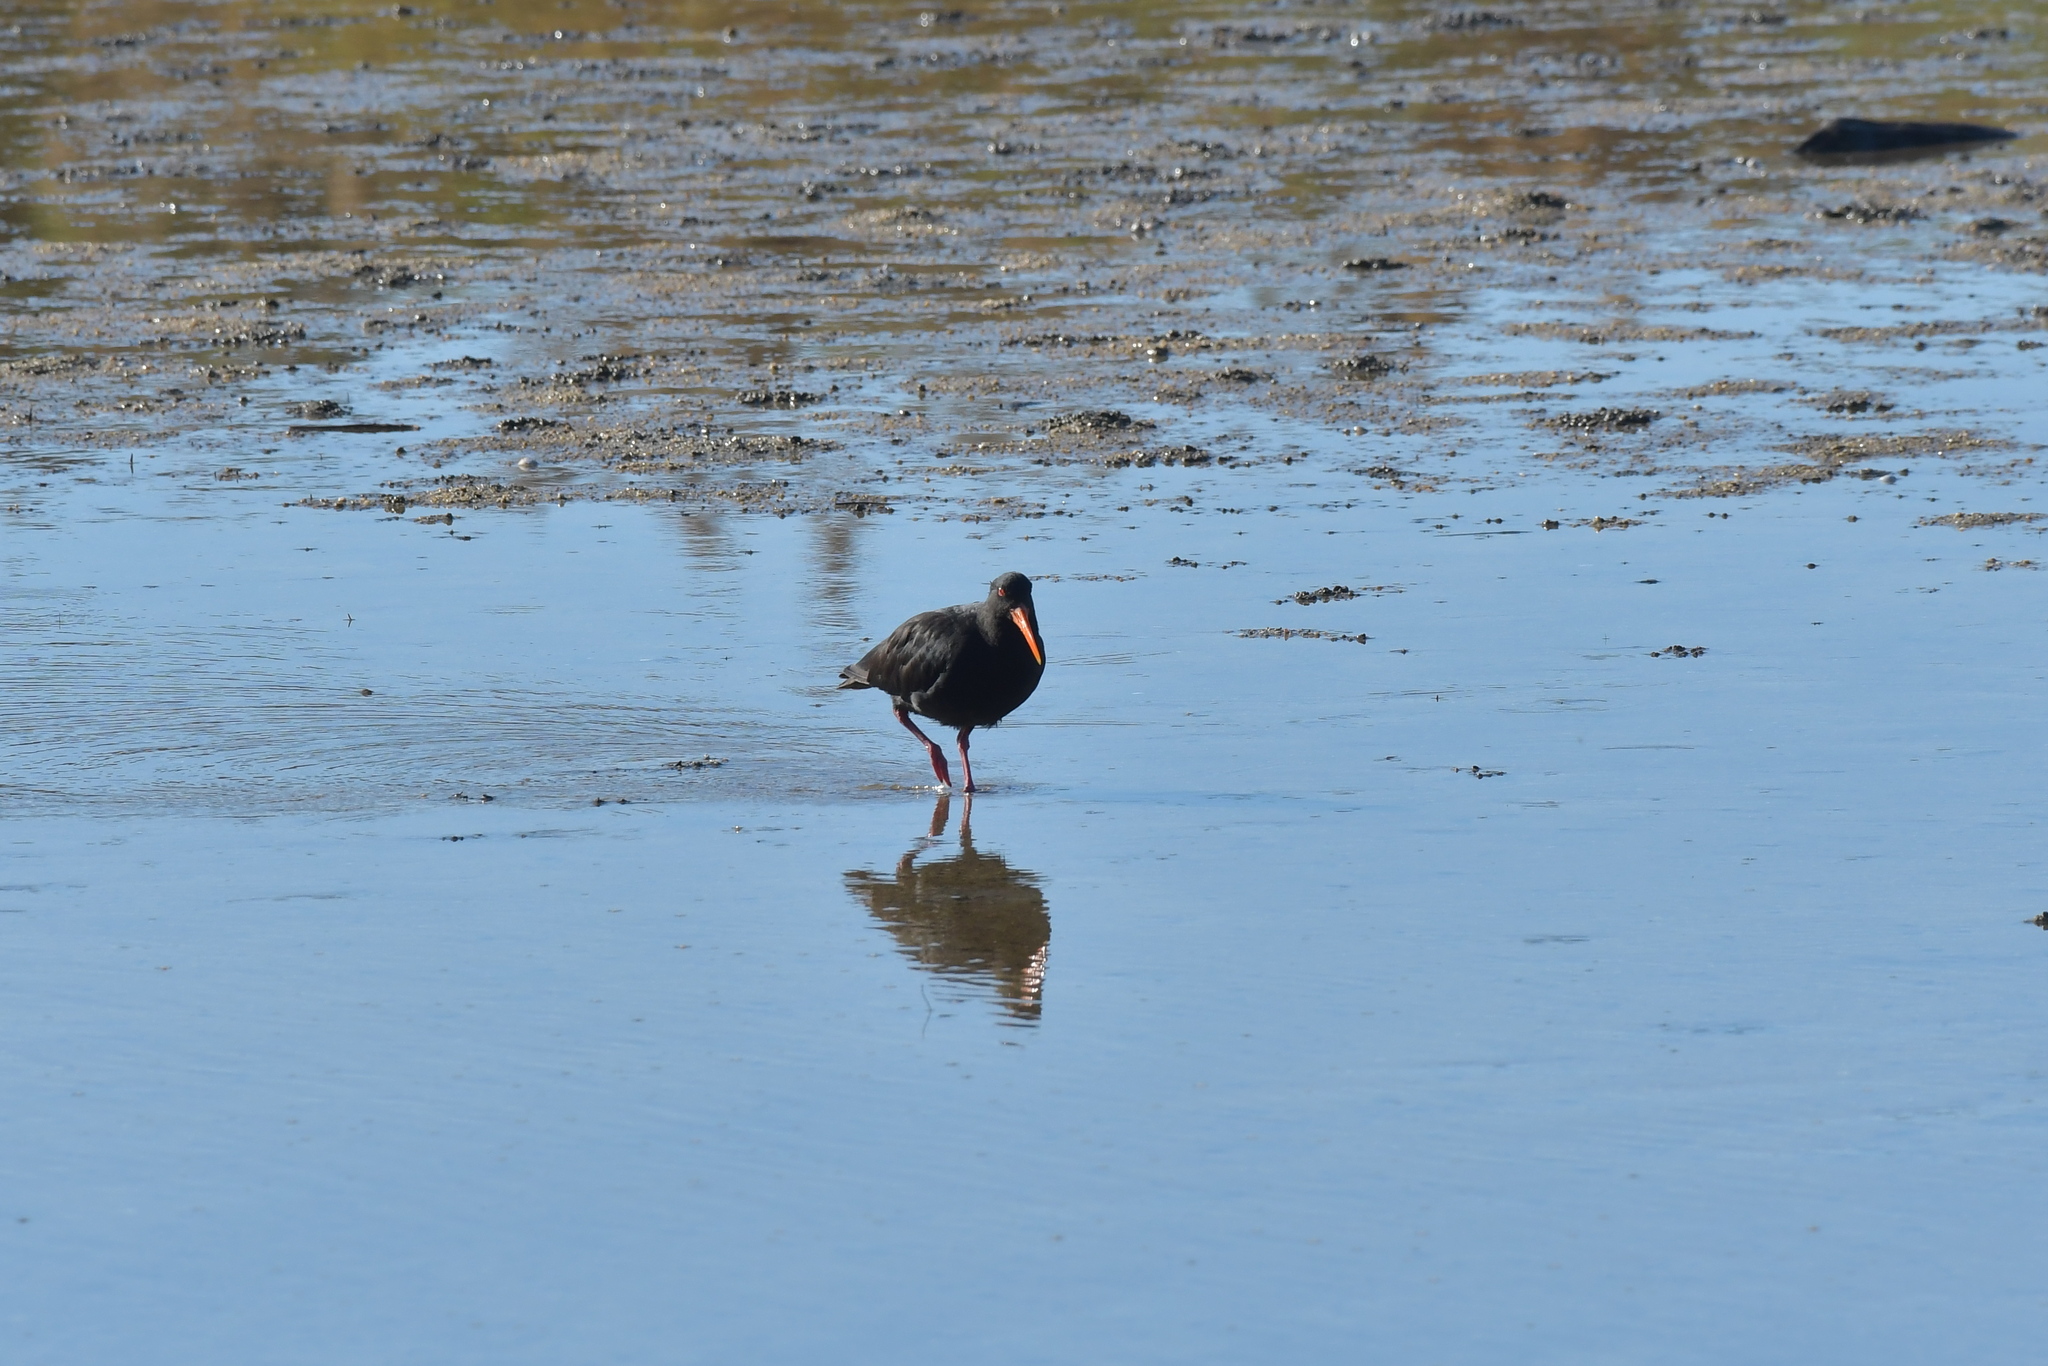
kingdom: Animalia
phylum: Chordata
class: Aves
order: Charadriiformes
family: Haematopodidae
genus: Haematopus
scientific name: Haematopus unicolor
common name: Variable oystercatcher
